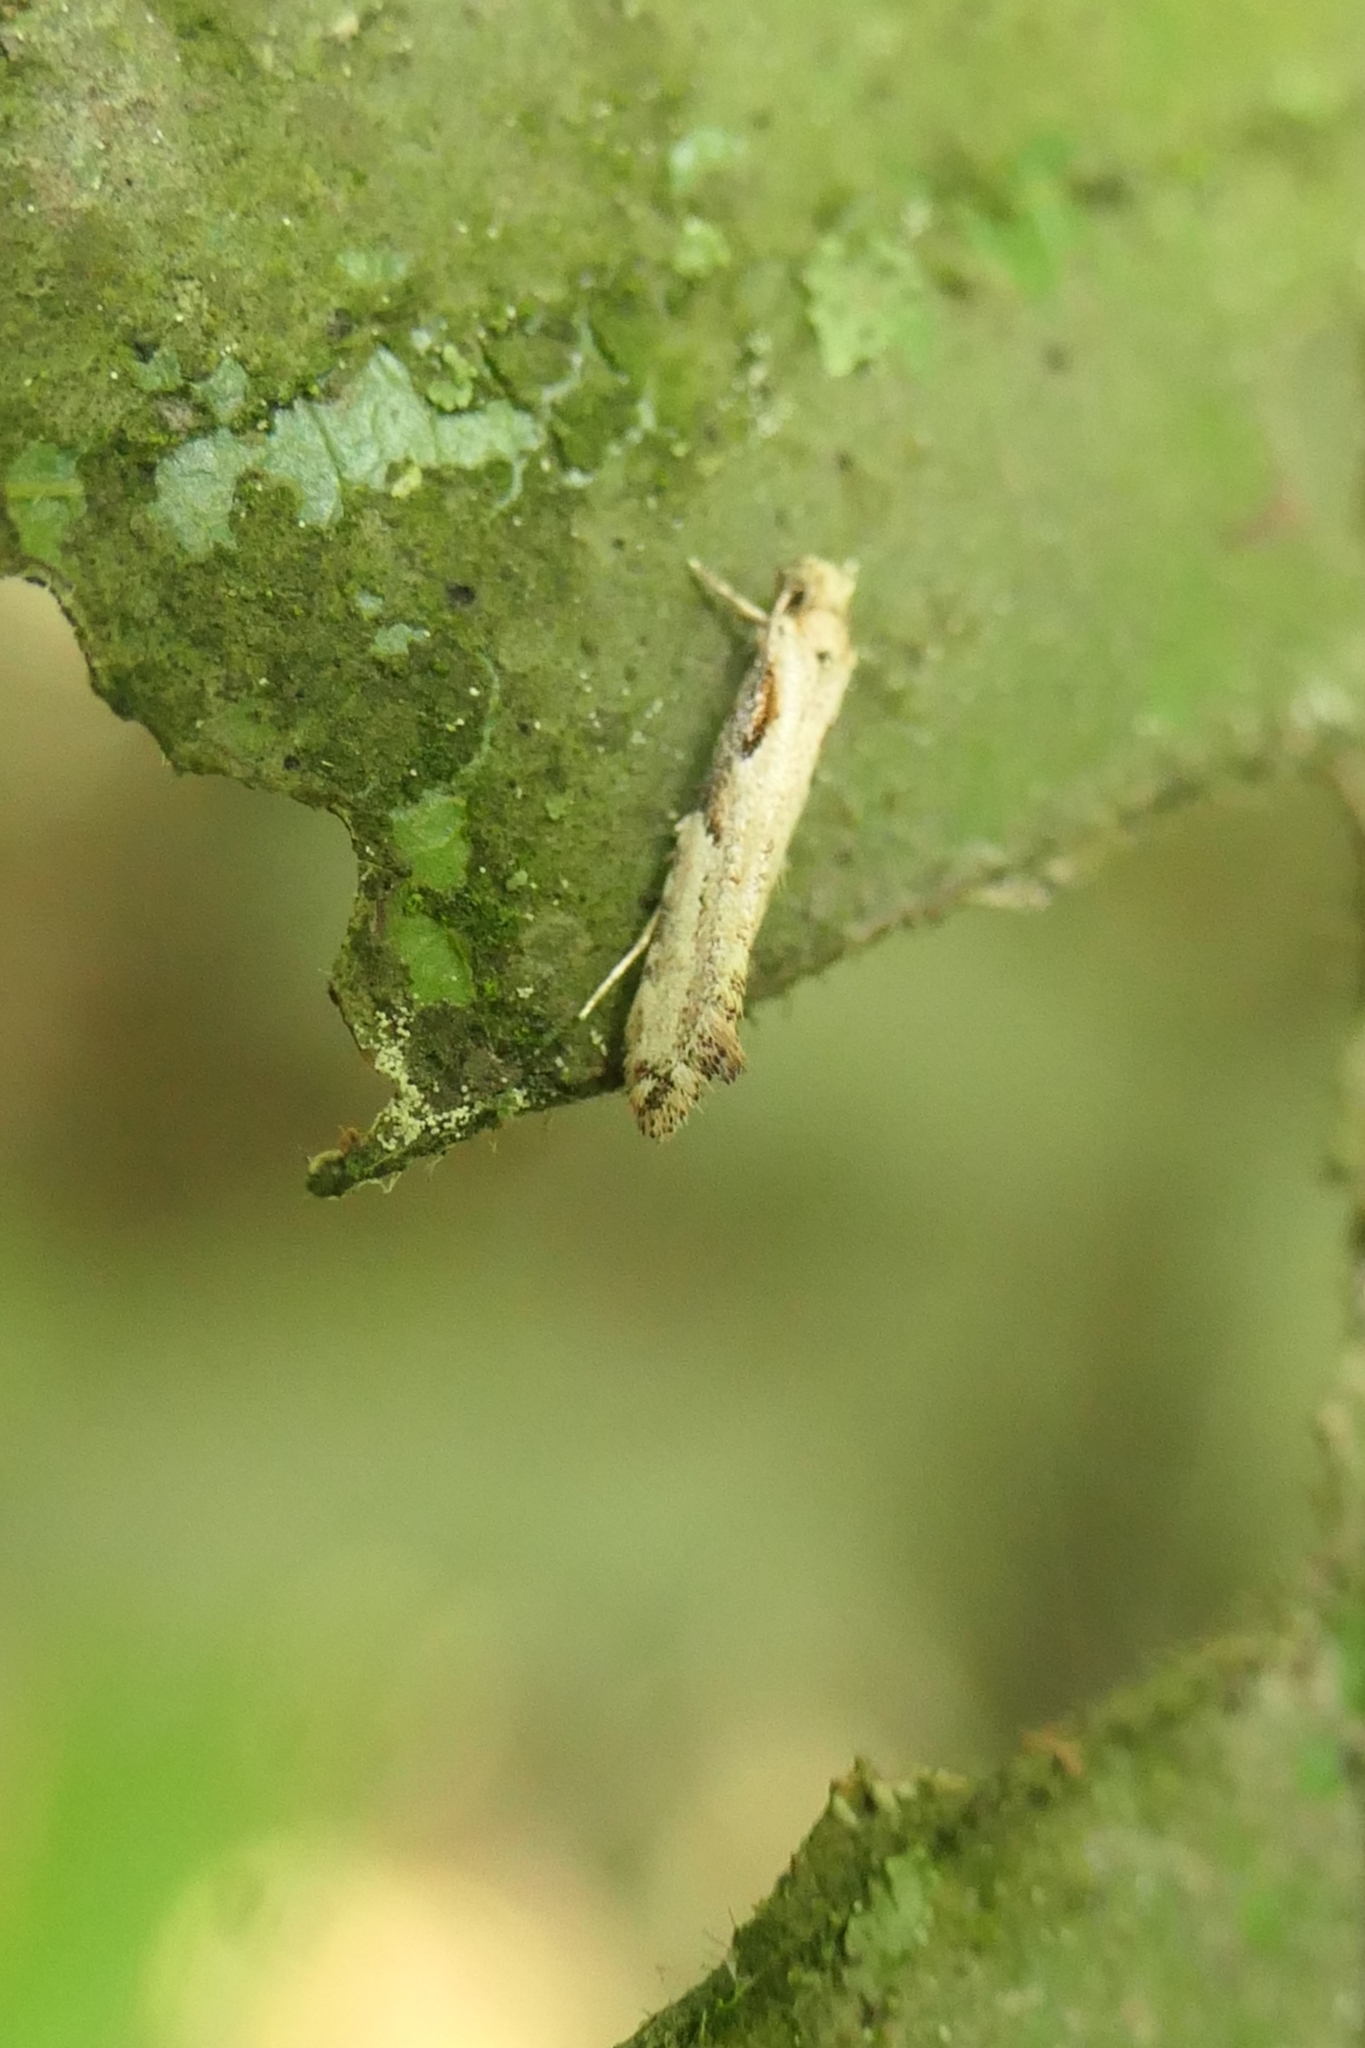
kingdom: Animalia
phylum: Arthropoda
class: Insecta
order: Lepidoptera
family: Tineidae
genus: Crypsitricha
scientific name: Crypsitricha pharotoma
